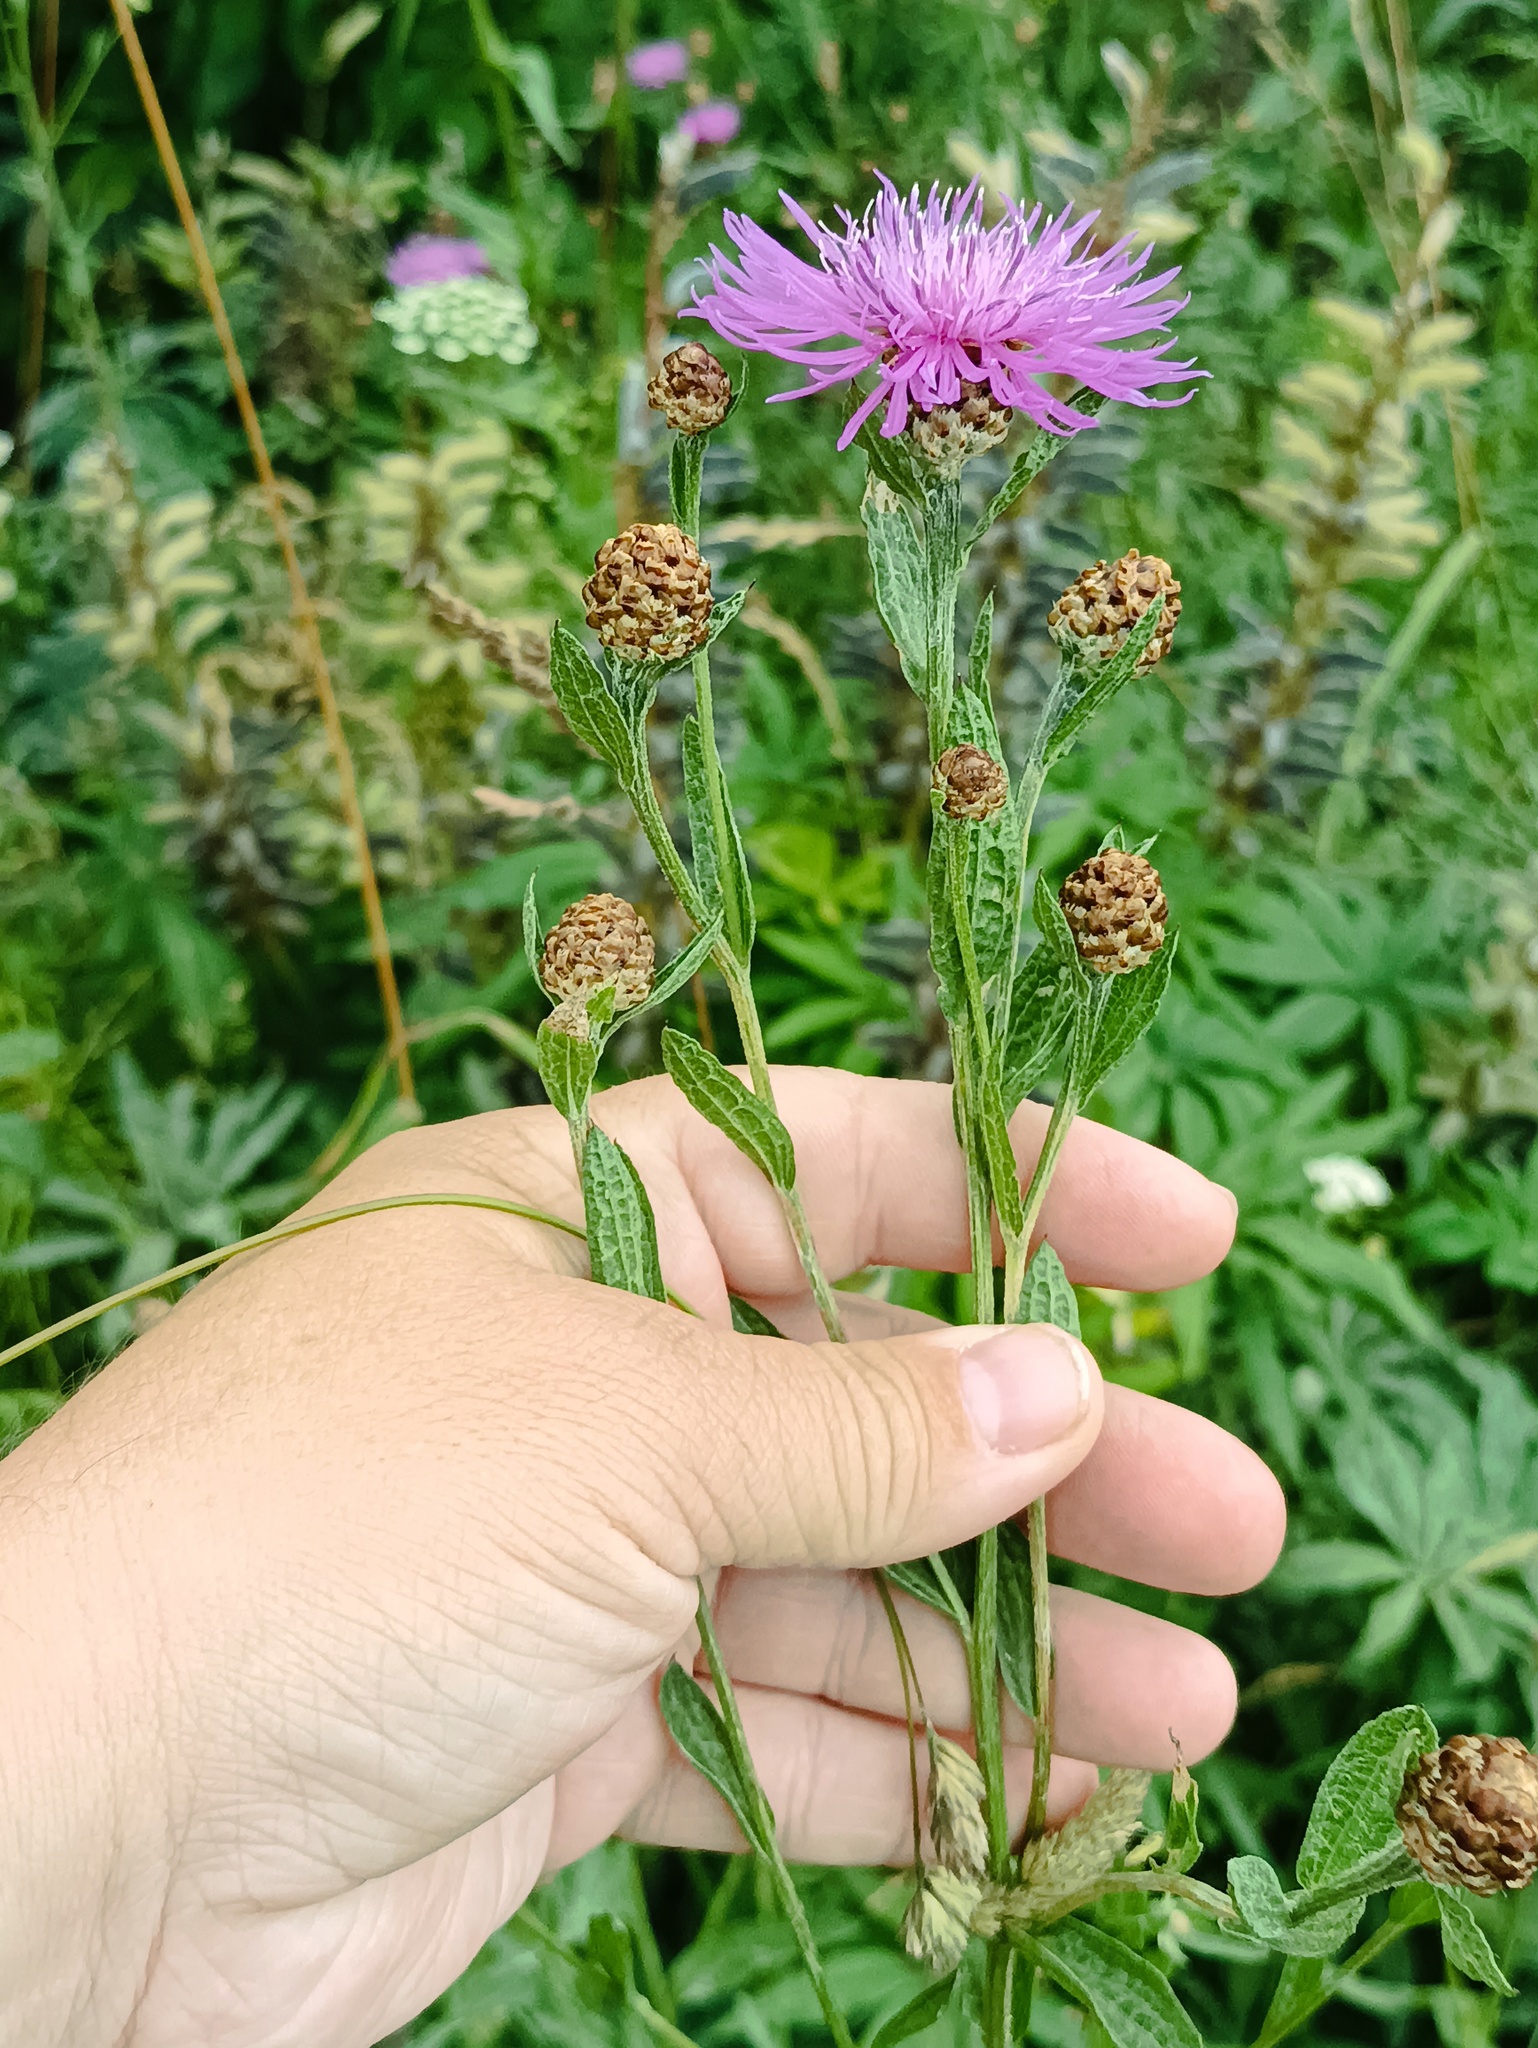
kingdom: Plantae
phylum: Tracheophyta
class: Magnoliopsida
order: Asterales
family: Asteraceae
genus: Centaurea
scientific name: Centaurea jacea
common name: Brown knapweed
